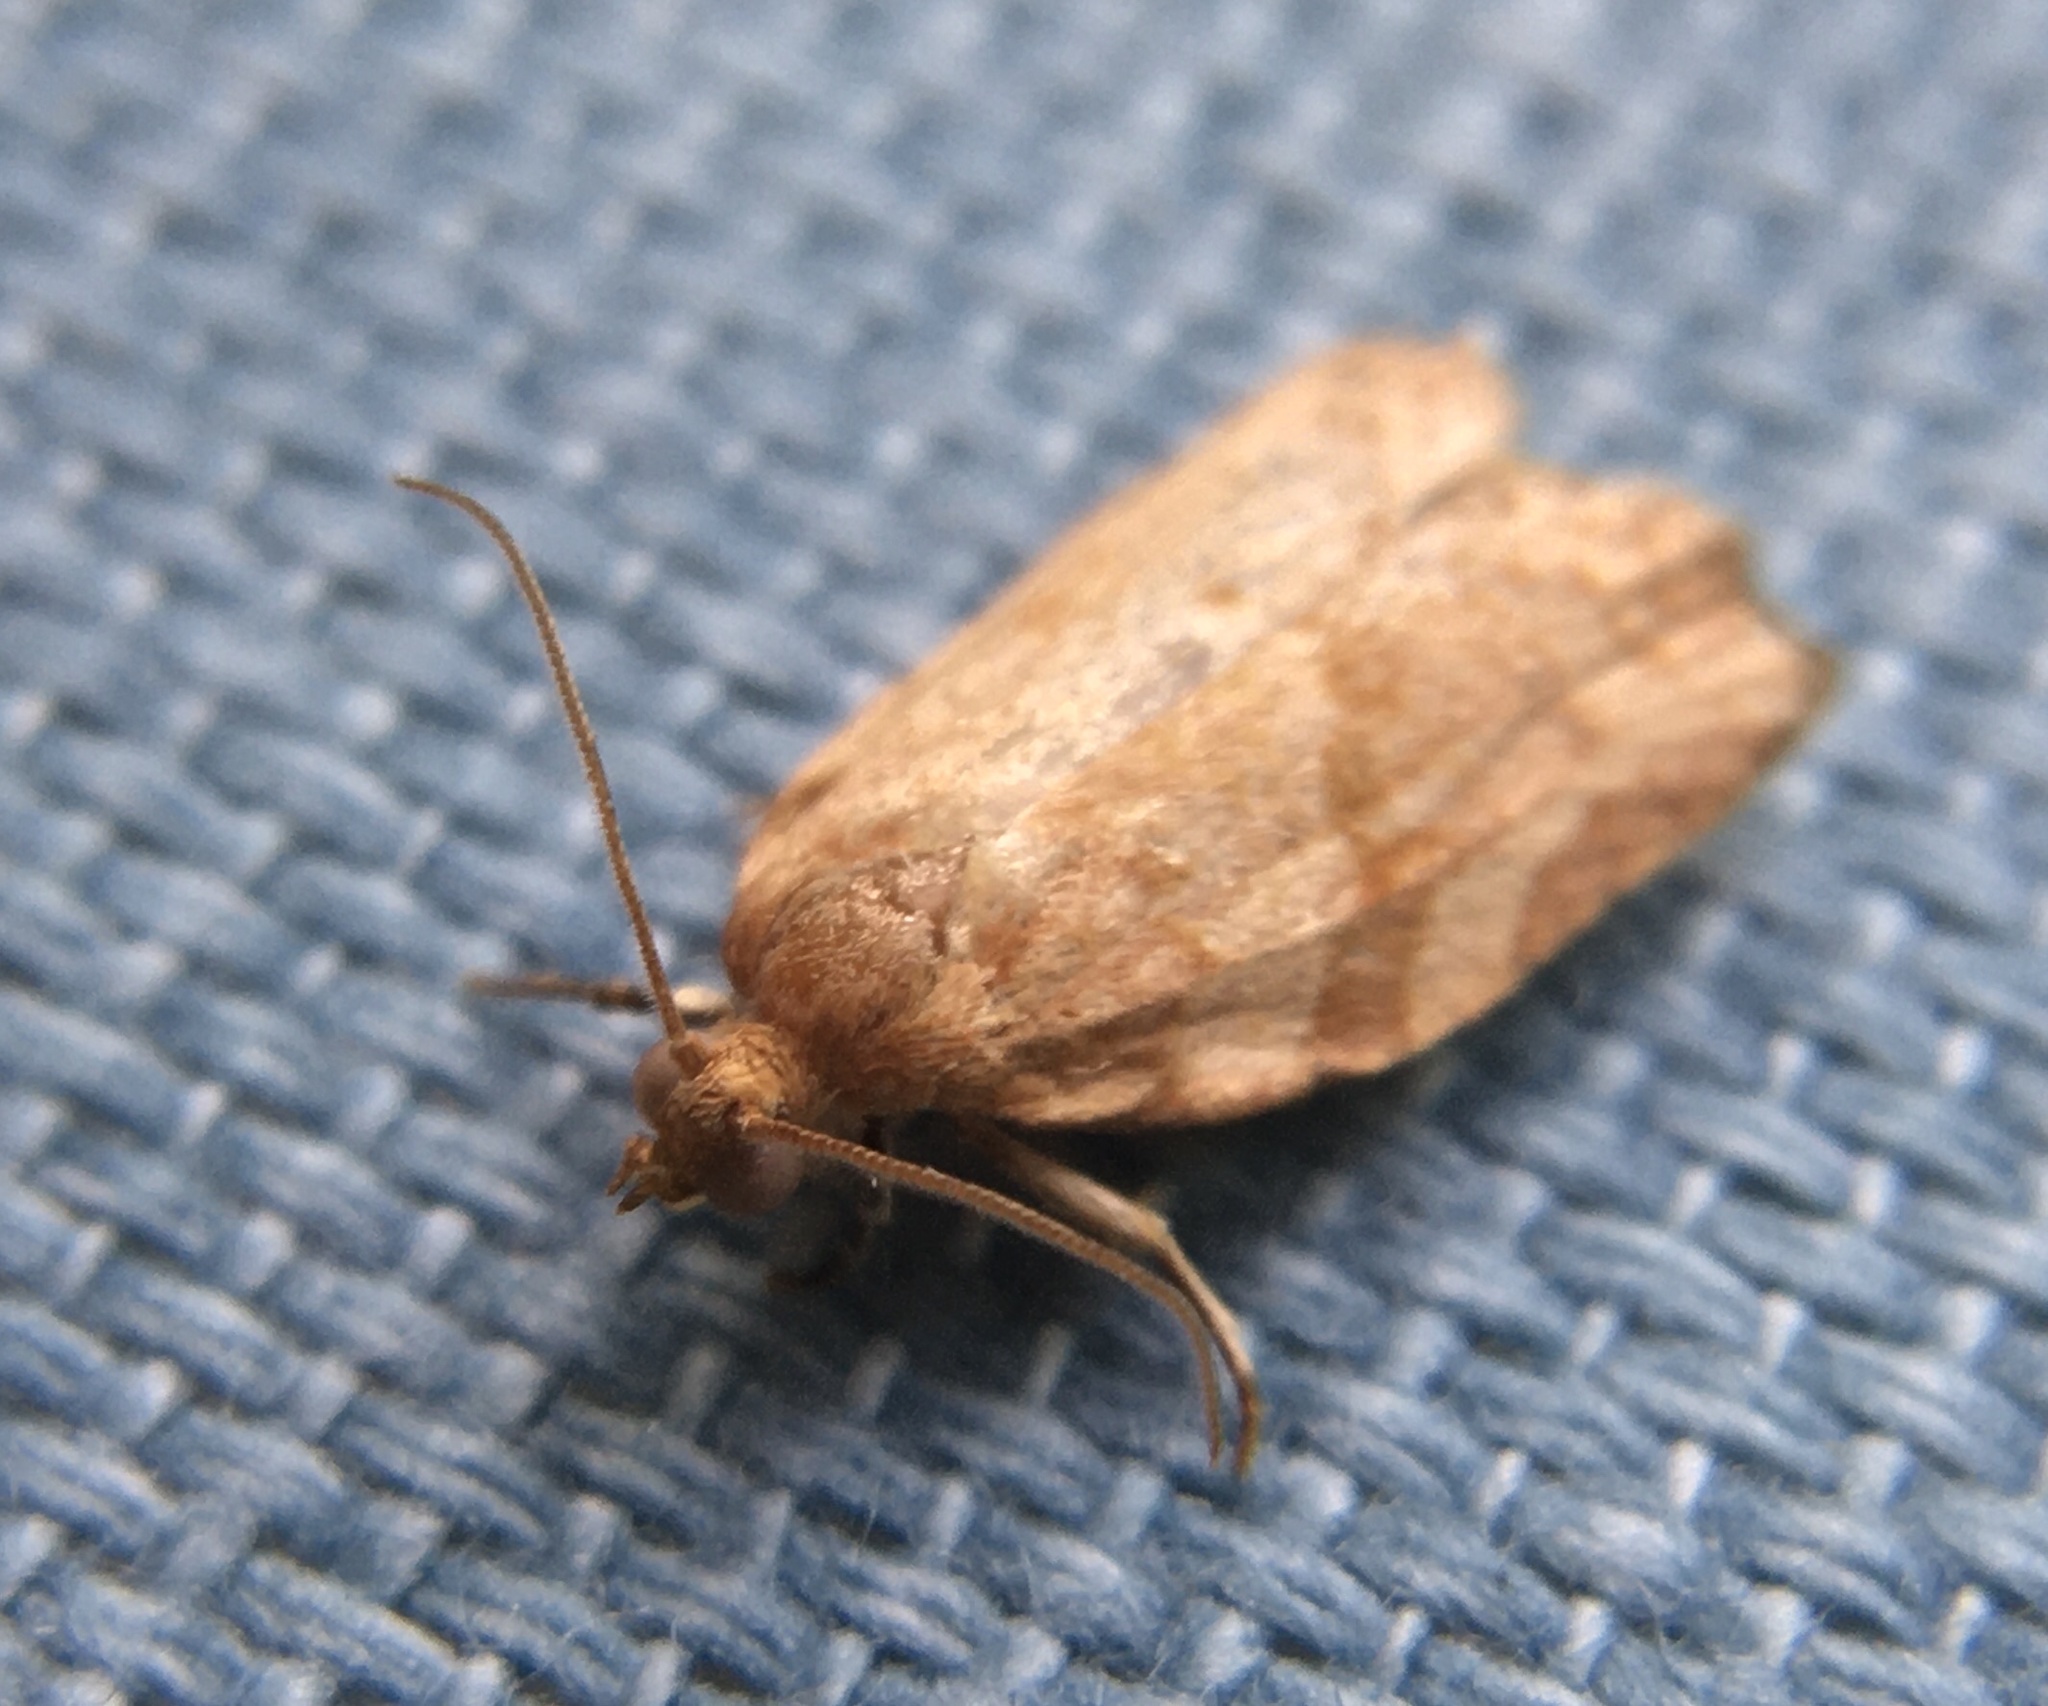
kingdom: Animalia
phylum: Arthropoda
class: Insecta
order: Lepidoptera
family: Tortricidae
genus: Pandemis
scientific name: Pandemis heparana
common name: Dark fruit-tree tortrix
